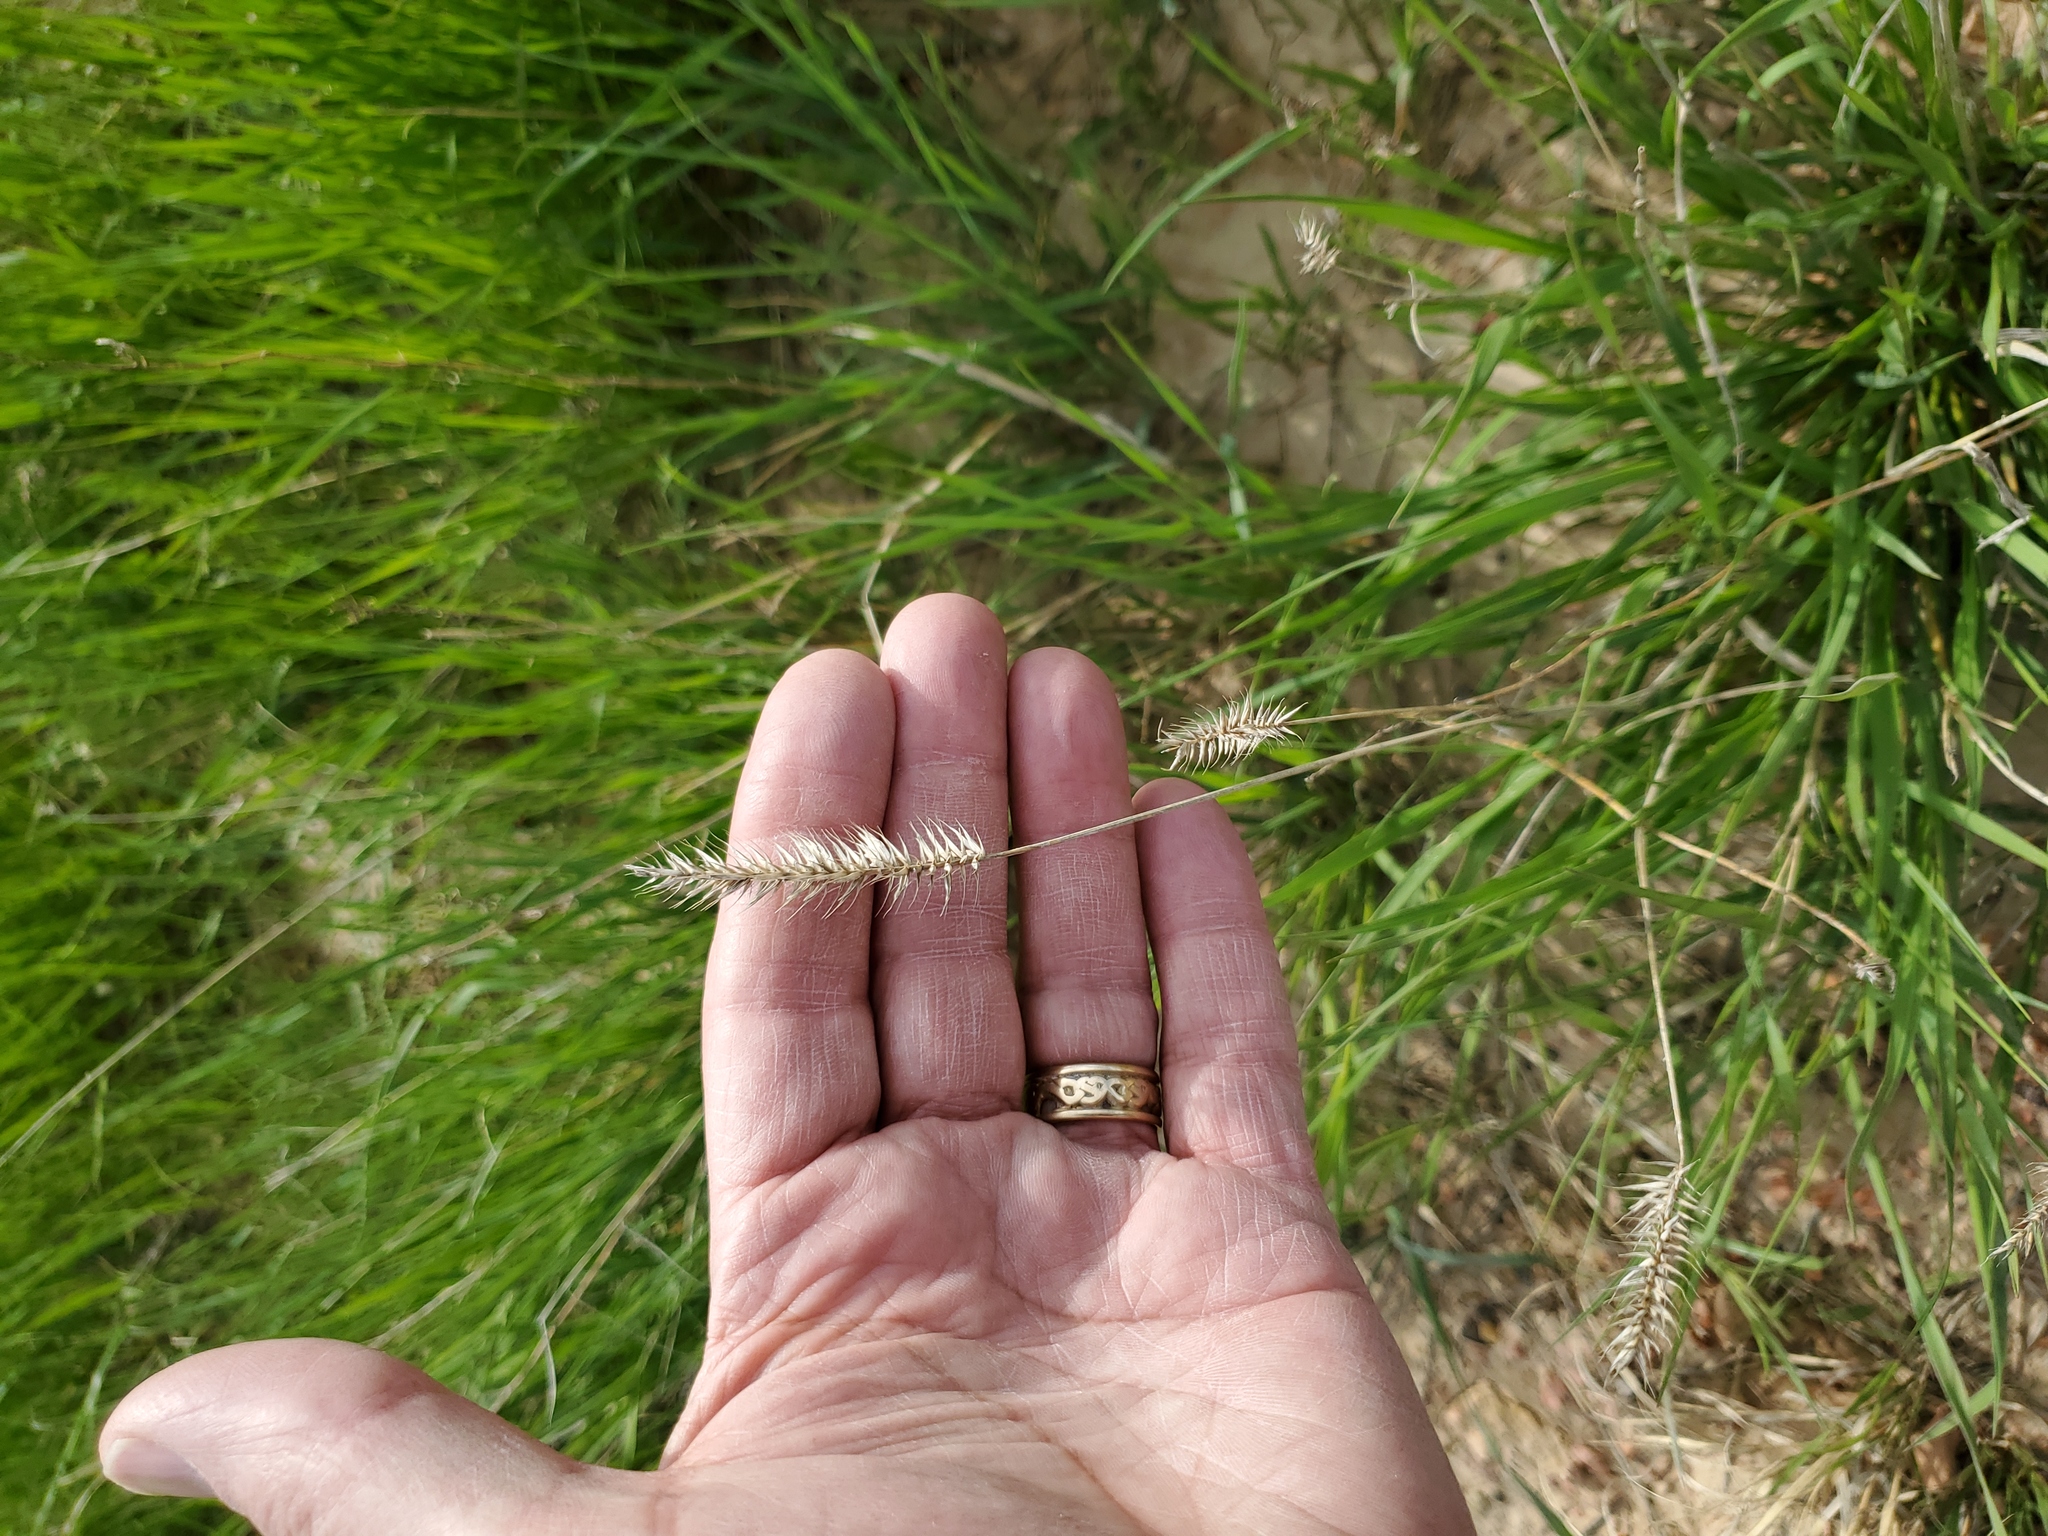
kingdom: Plantae
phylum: Tracheophyta
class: Liliopsida
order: Poales
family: Poaceae
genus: Agropyron
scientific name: Agropyron cristatum
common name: Crested wheatgrass
